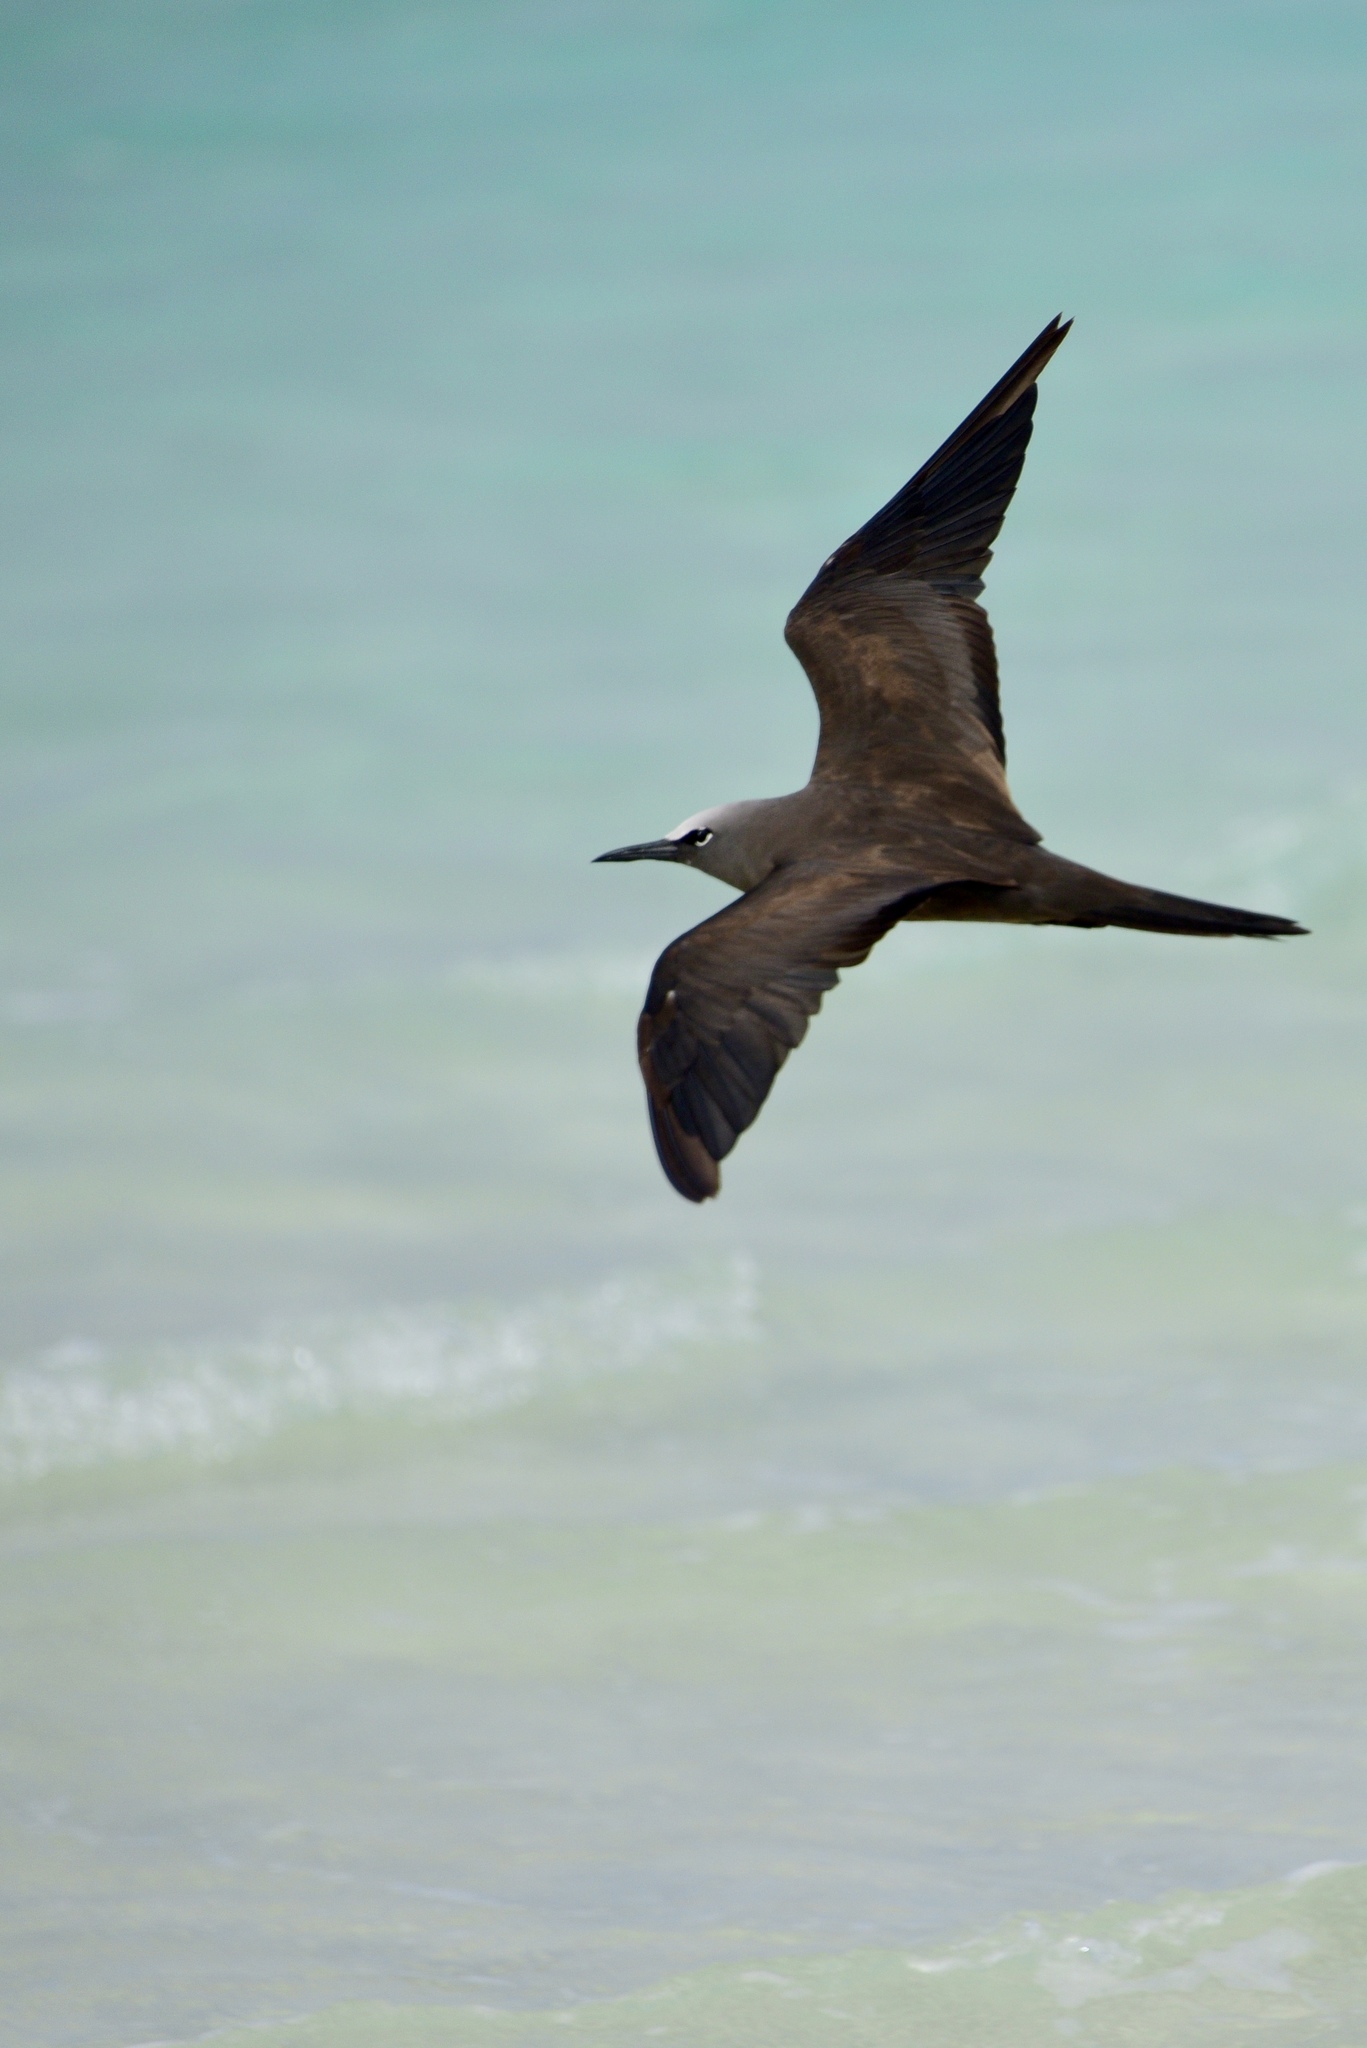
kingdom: Animalia
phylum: Chordata
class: Aves
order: Charadriiformes
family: Laridae
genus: Anous
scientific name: Anous minutus
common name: Black noddy
